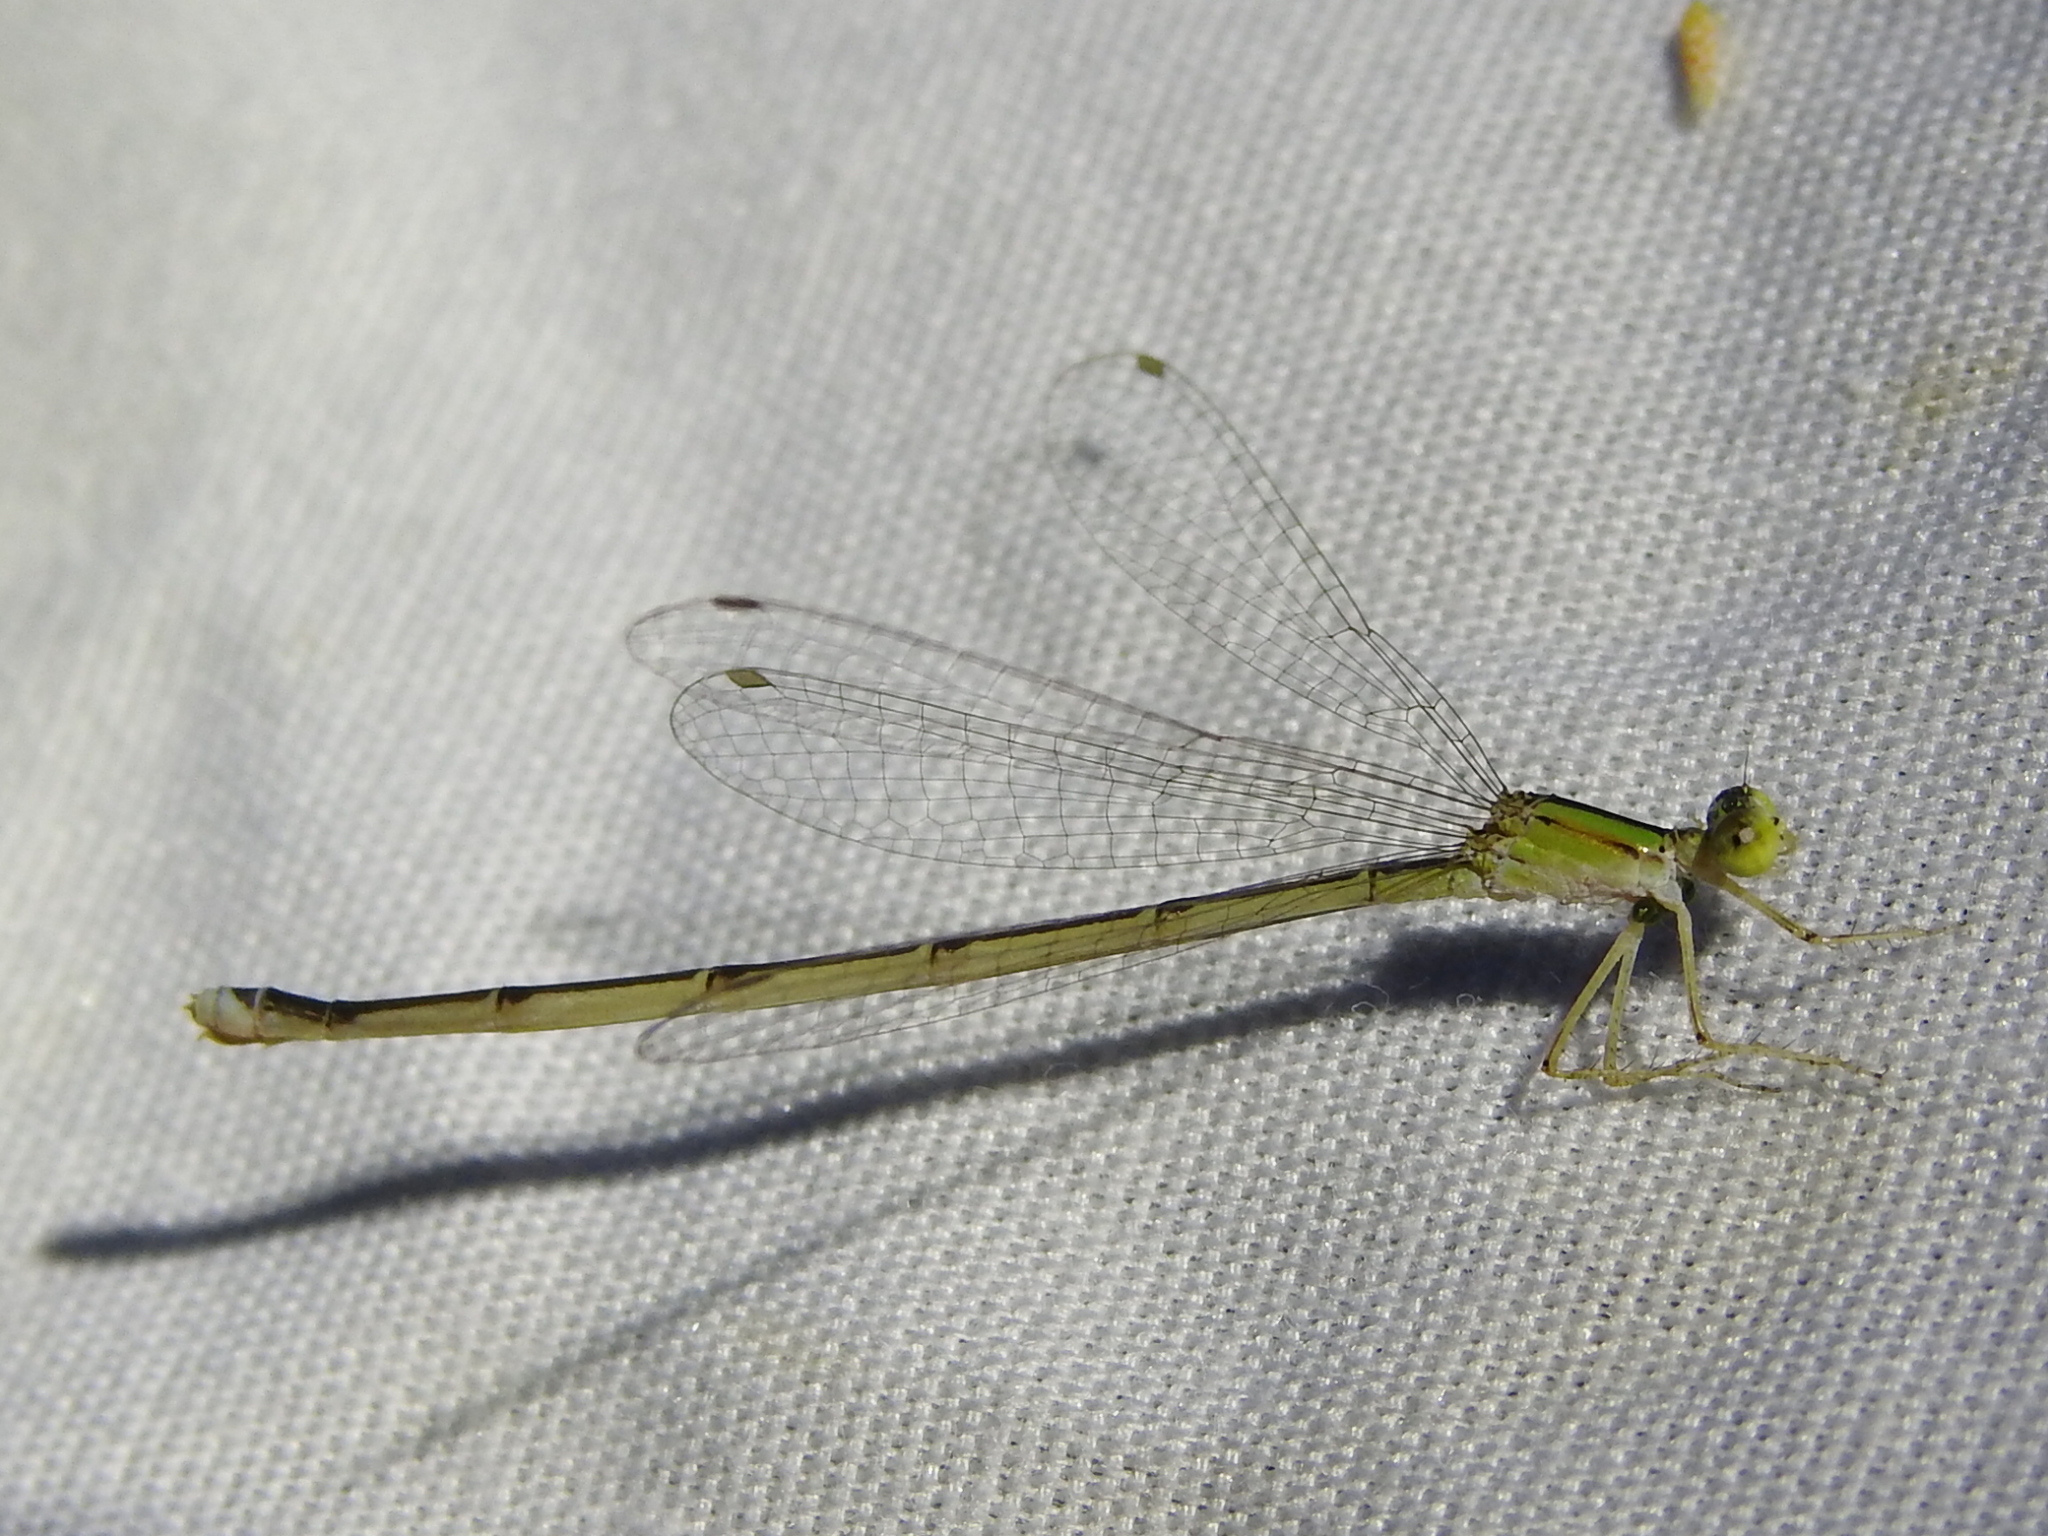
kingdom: Animalia
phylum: Arthropoda
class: Insecta
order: Odonata
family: Coenagrionidae
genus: Enallagma
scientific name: Enallagma vesperum
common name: Vesper bluet
